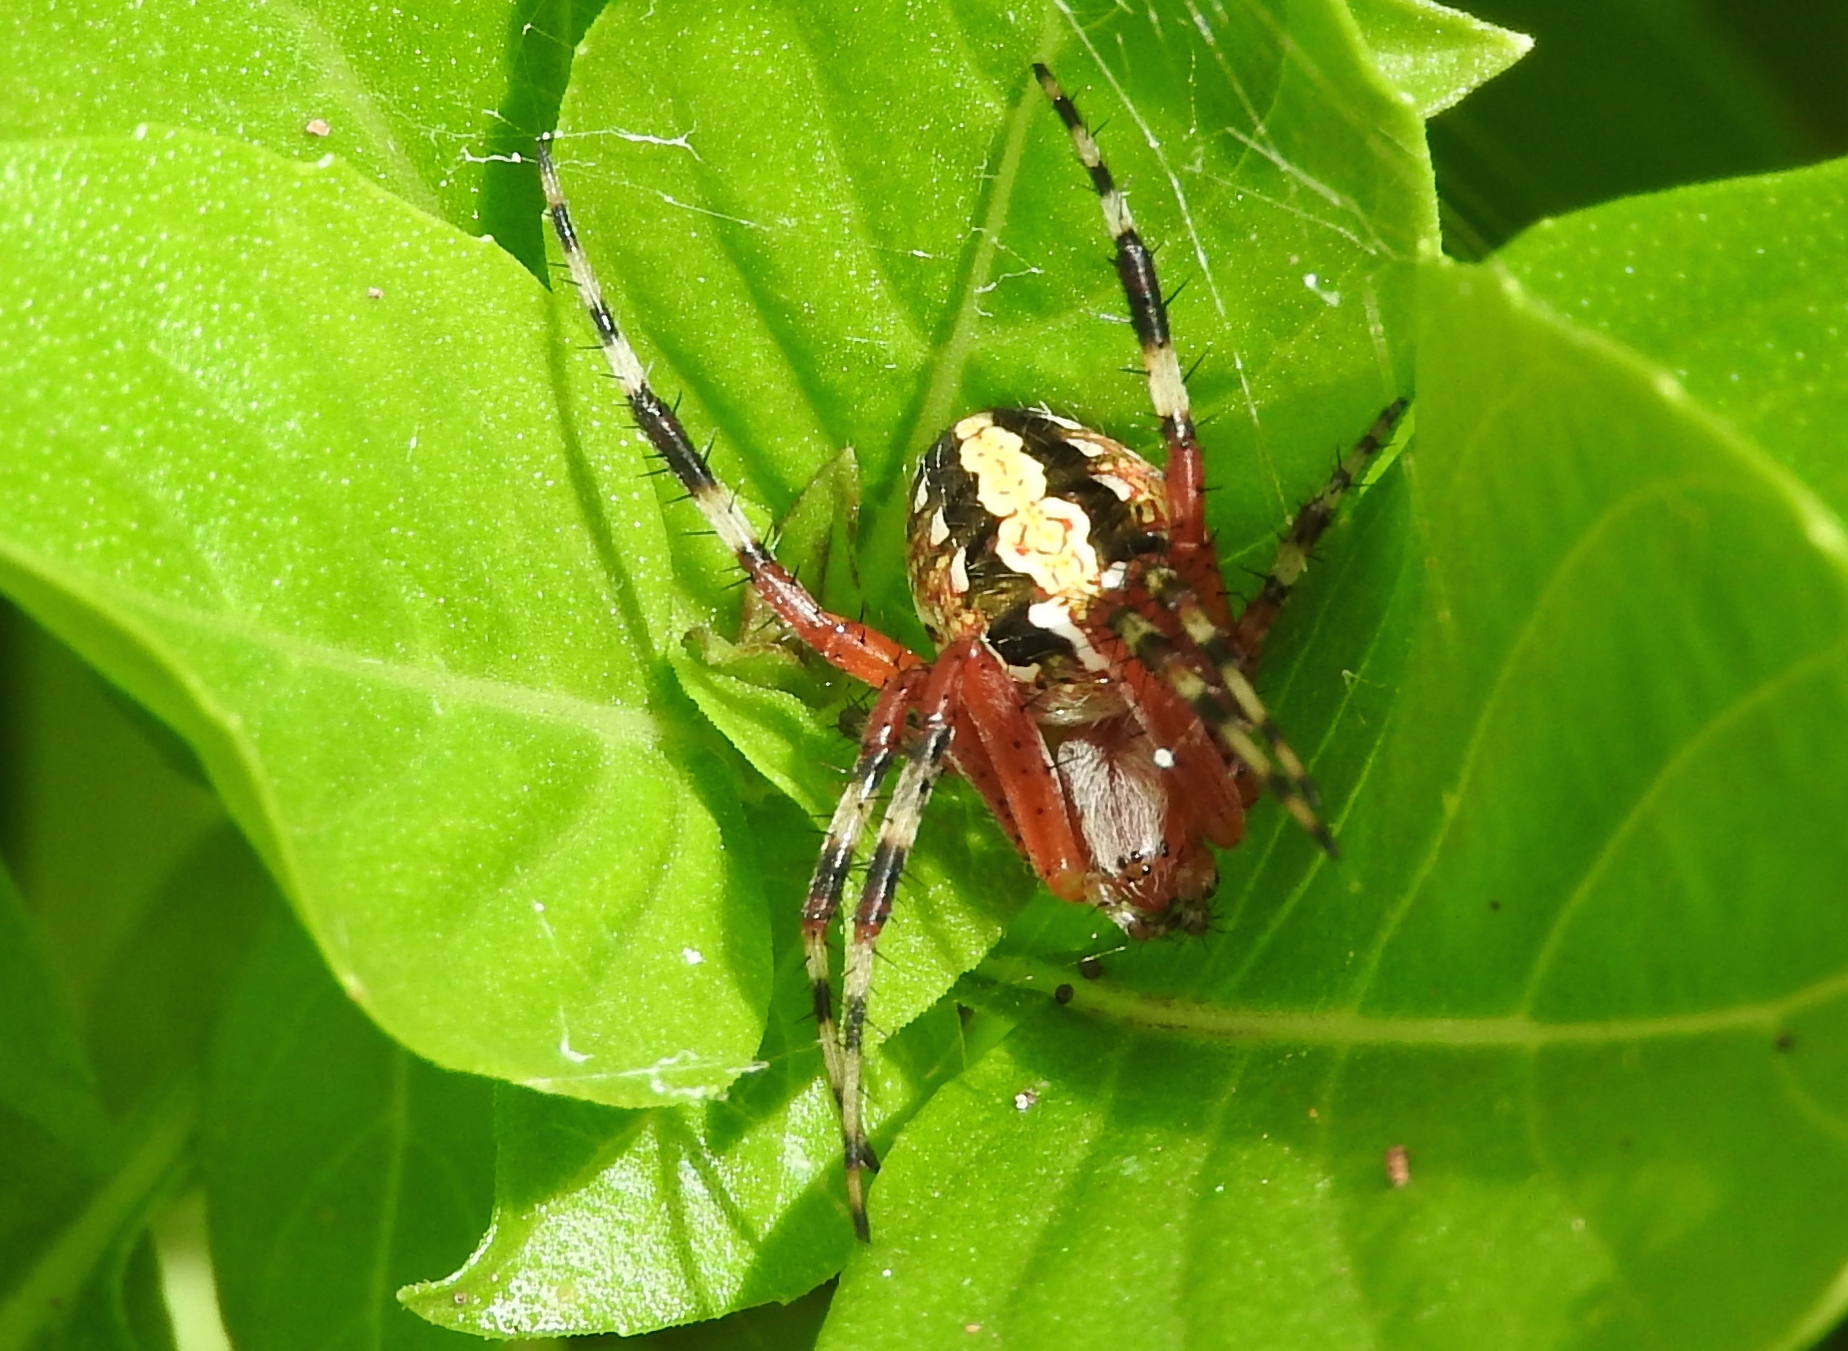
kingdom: Animalia
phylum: Arthropoda
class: Arachnida
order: Araneae
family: Araneidae
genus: Neoscona
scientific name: Neoscona oaxacensis
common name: Orb weavers
